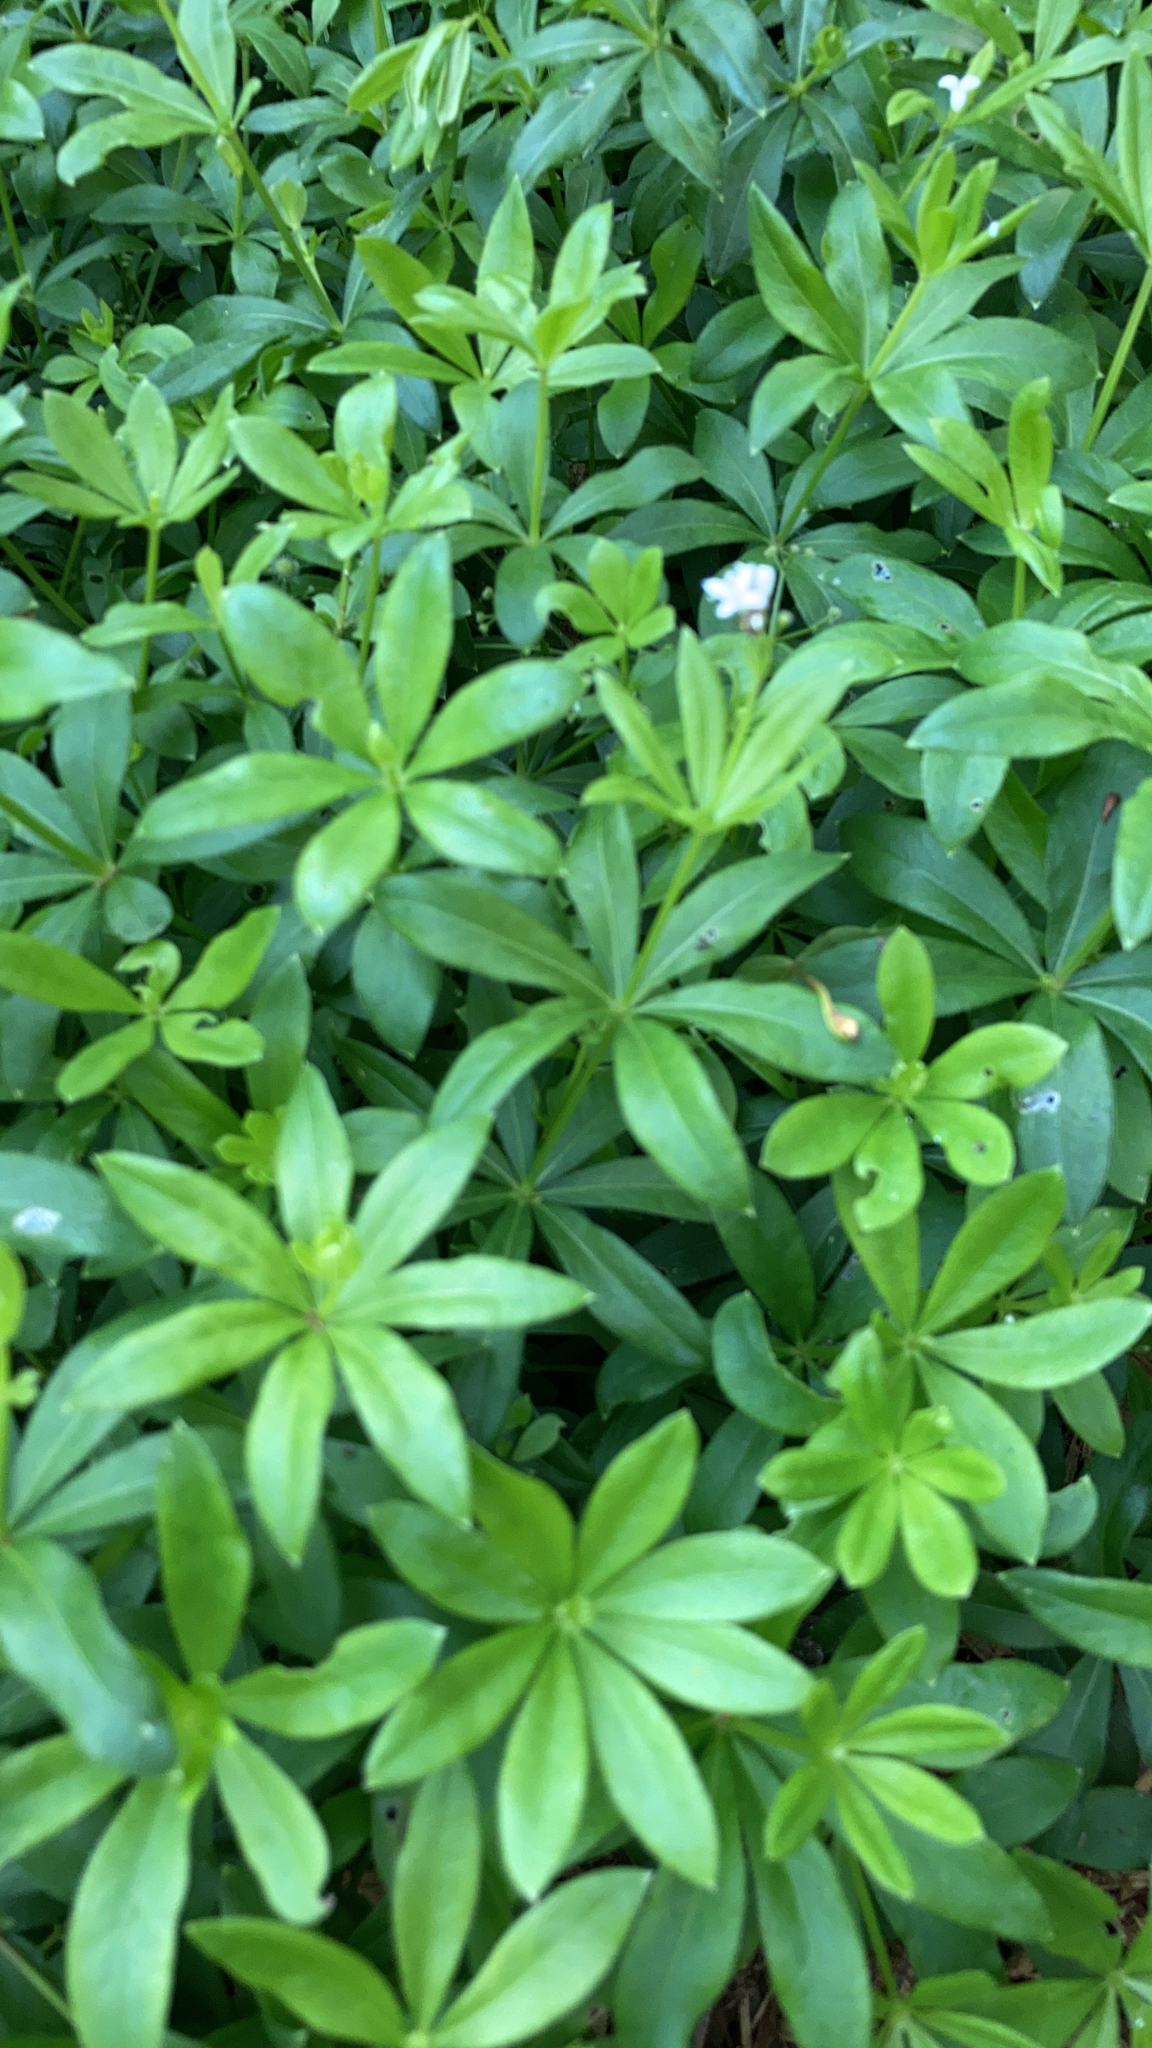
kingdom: Plantae
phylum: Tracheophyta
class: Magnoliopsida
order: Gentianales
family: Rubiaceae
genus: Galium
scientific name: Galium odoratum
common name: Sweet woodruff
